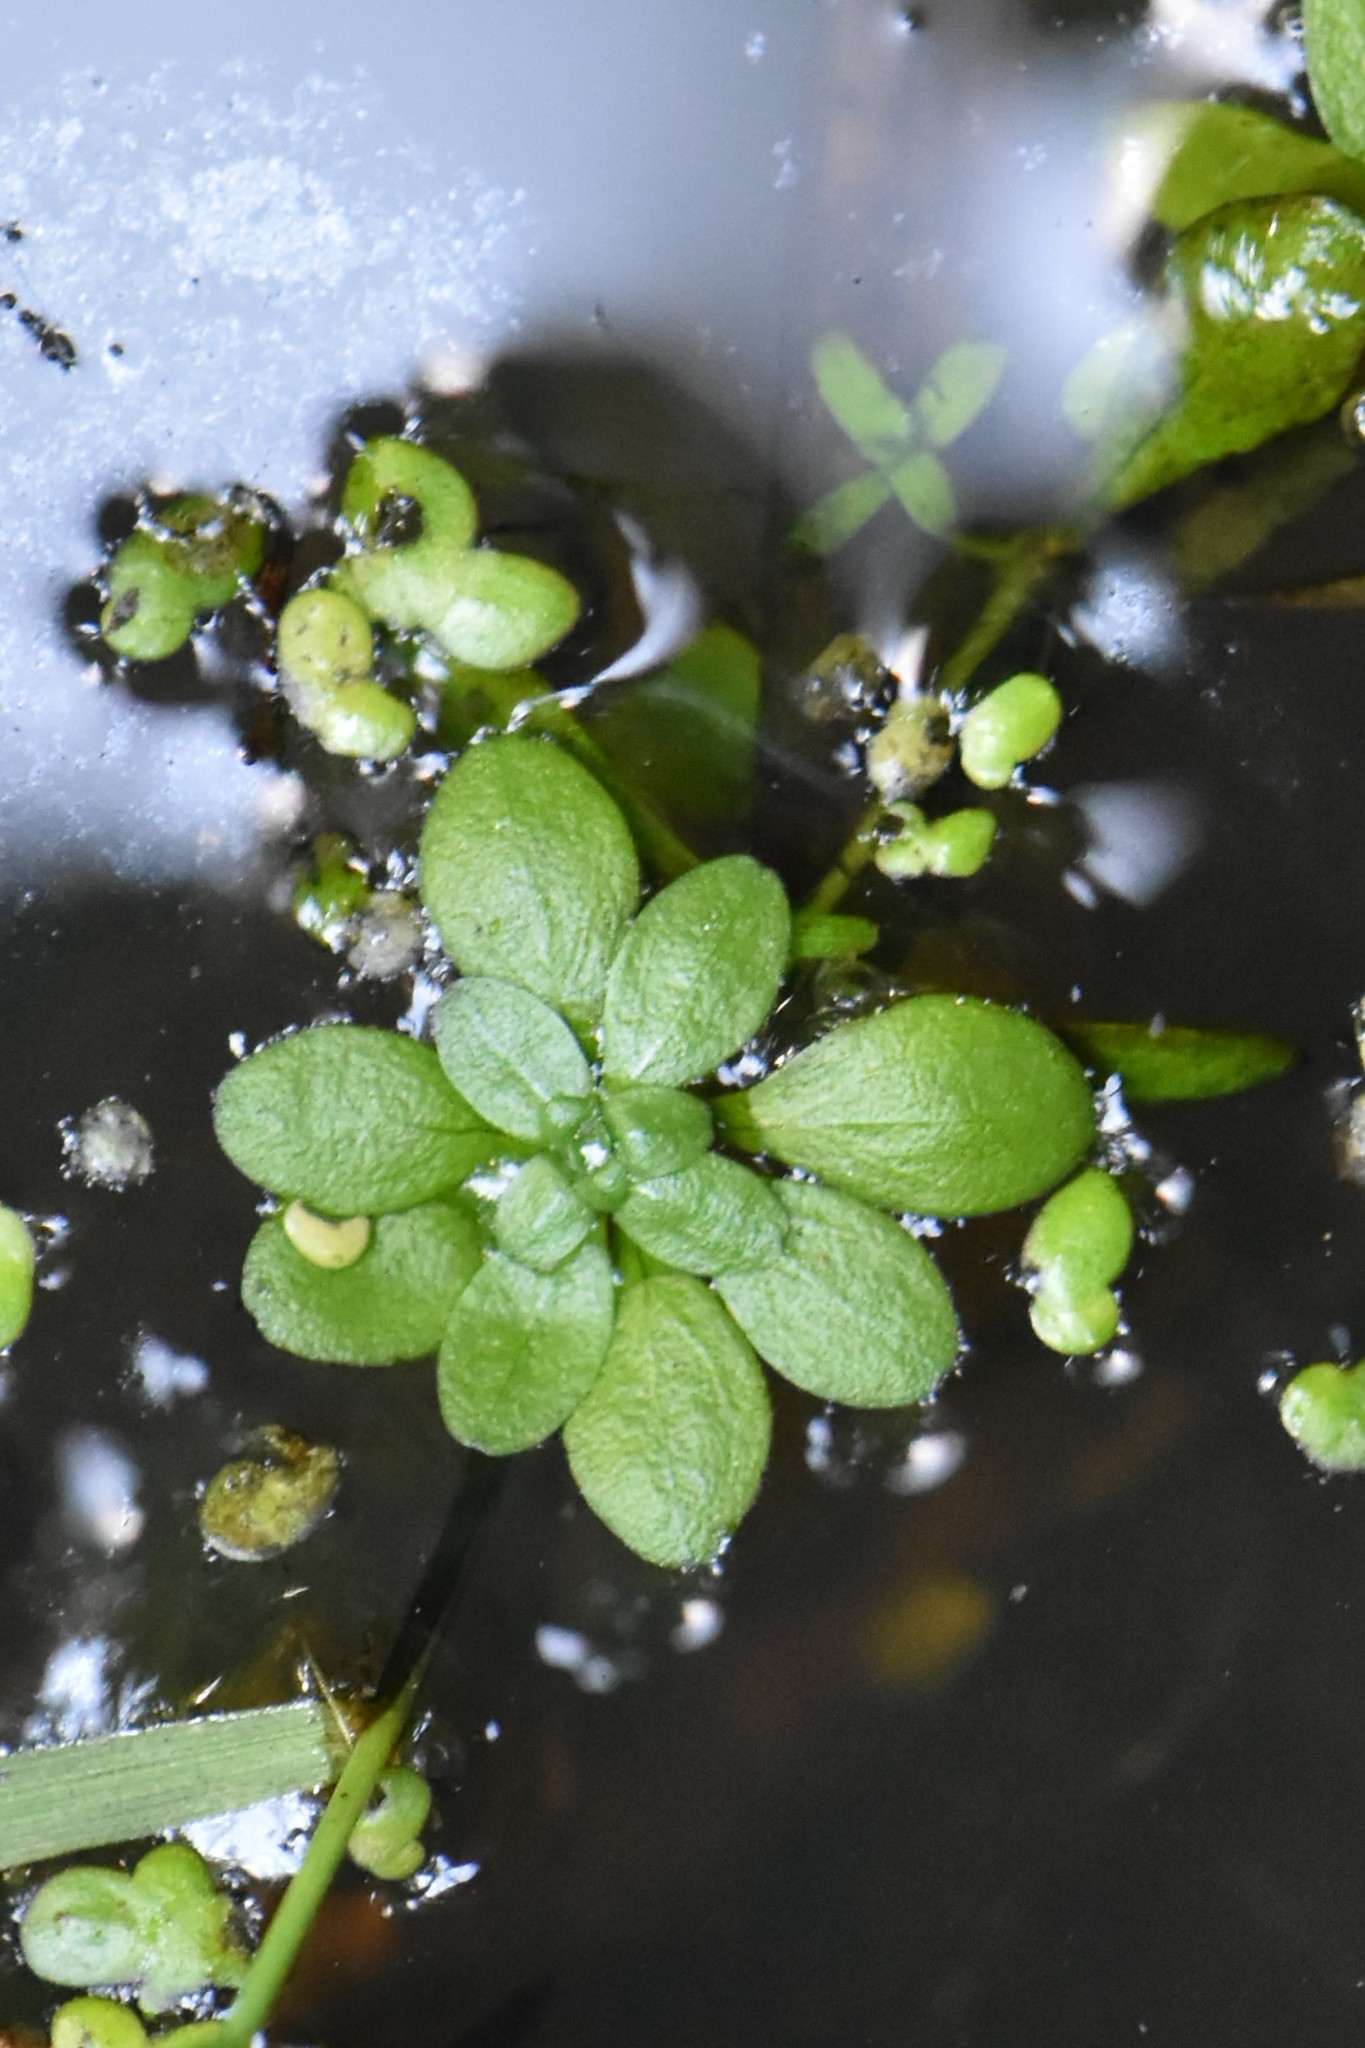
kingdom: Plantae
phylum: Tracheophyta
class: Magnoliopsida
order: Lamiales
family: Plantaginaceae
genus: Callitriche
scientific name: Callitriche
